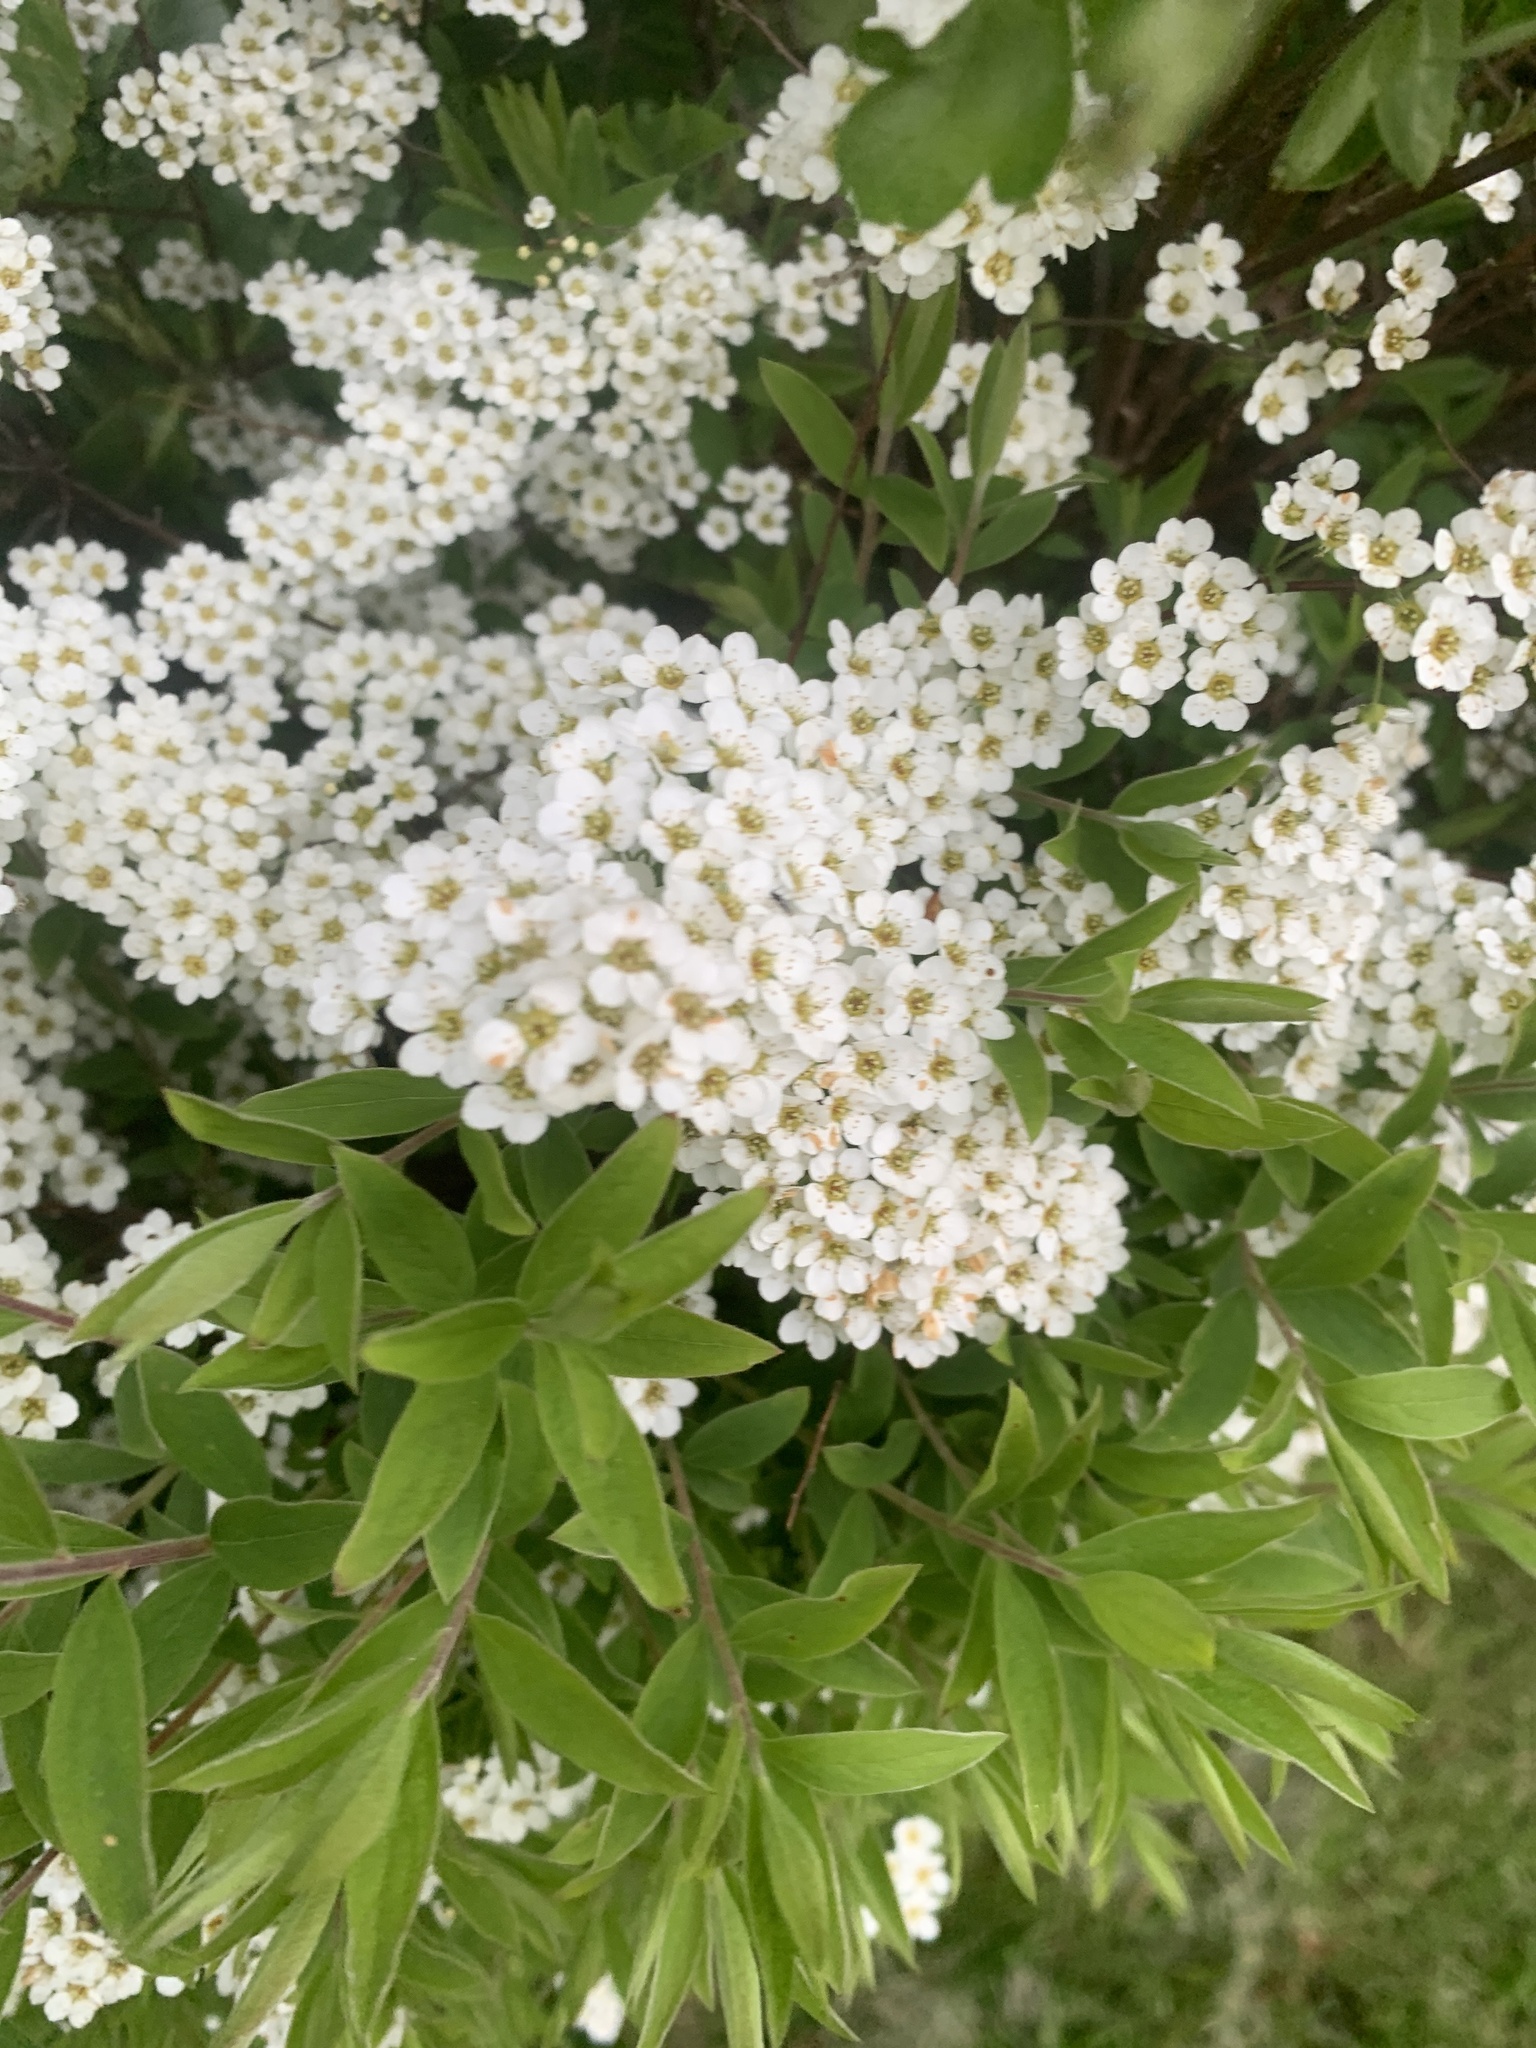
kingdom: Plantae
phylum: Tracheophyta
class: Magnoliopsida
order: Rosales
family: Rosaceae
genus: Spiraea
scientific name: Spiraea cantoniensis
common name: Reeves' meadowsweet
